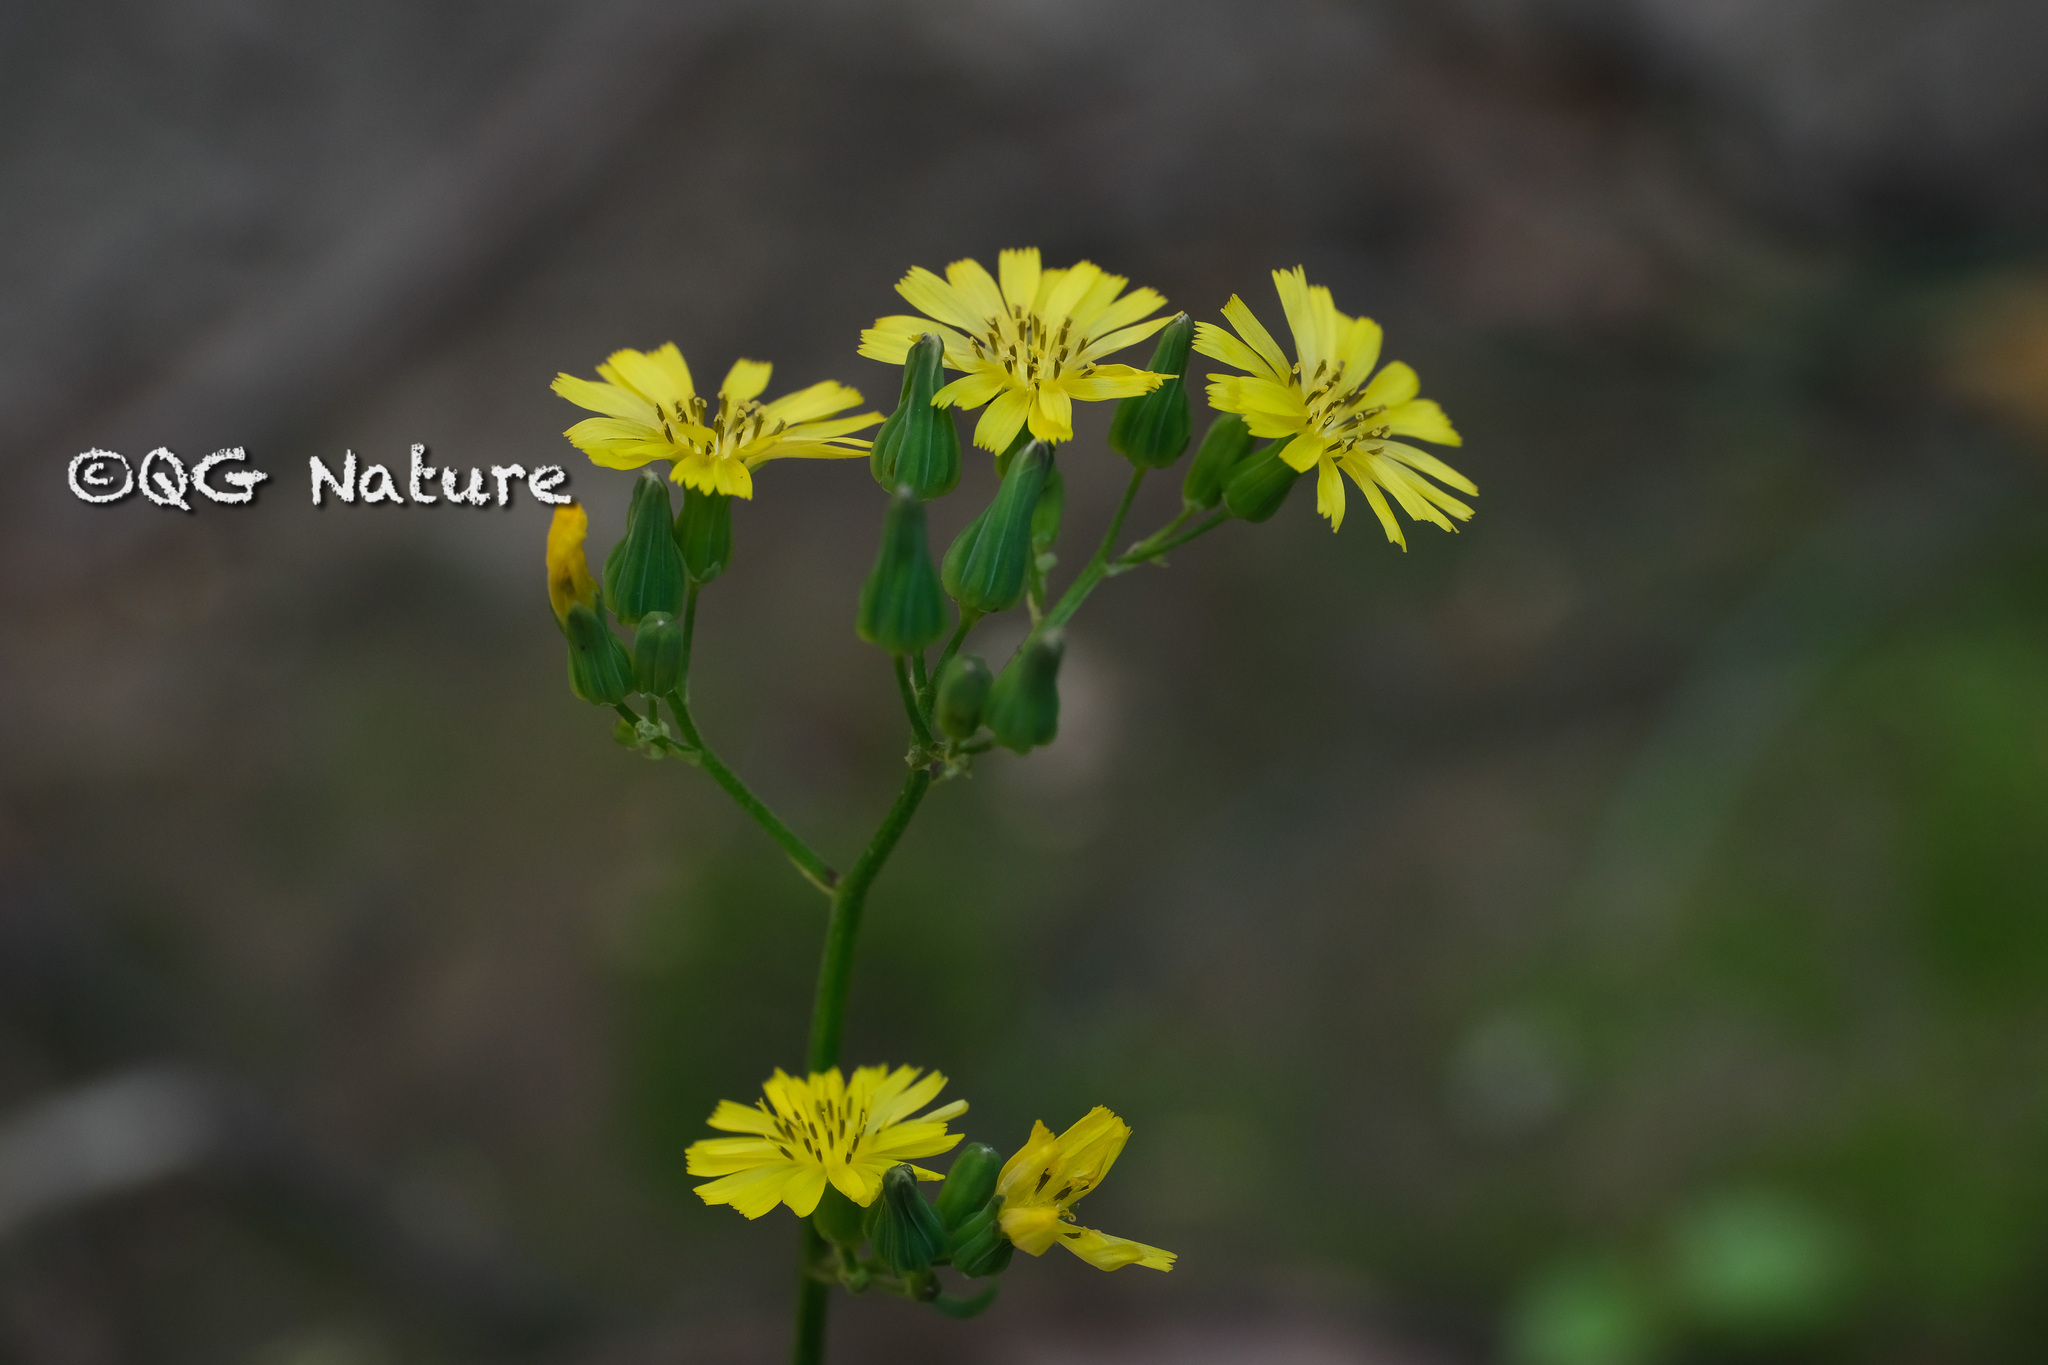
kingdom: Plantae
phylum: Tracheophyta
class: Magnoliopsida
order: Asterales
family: Asteraceae
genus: Youngia
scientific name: Youngia japonica
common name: Oriental false hawksbeard
